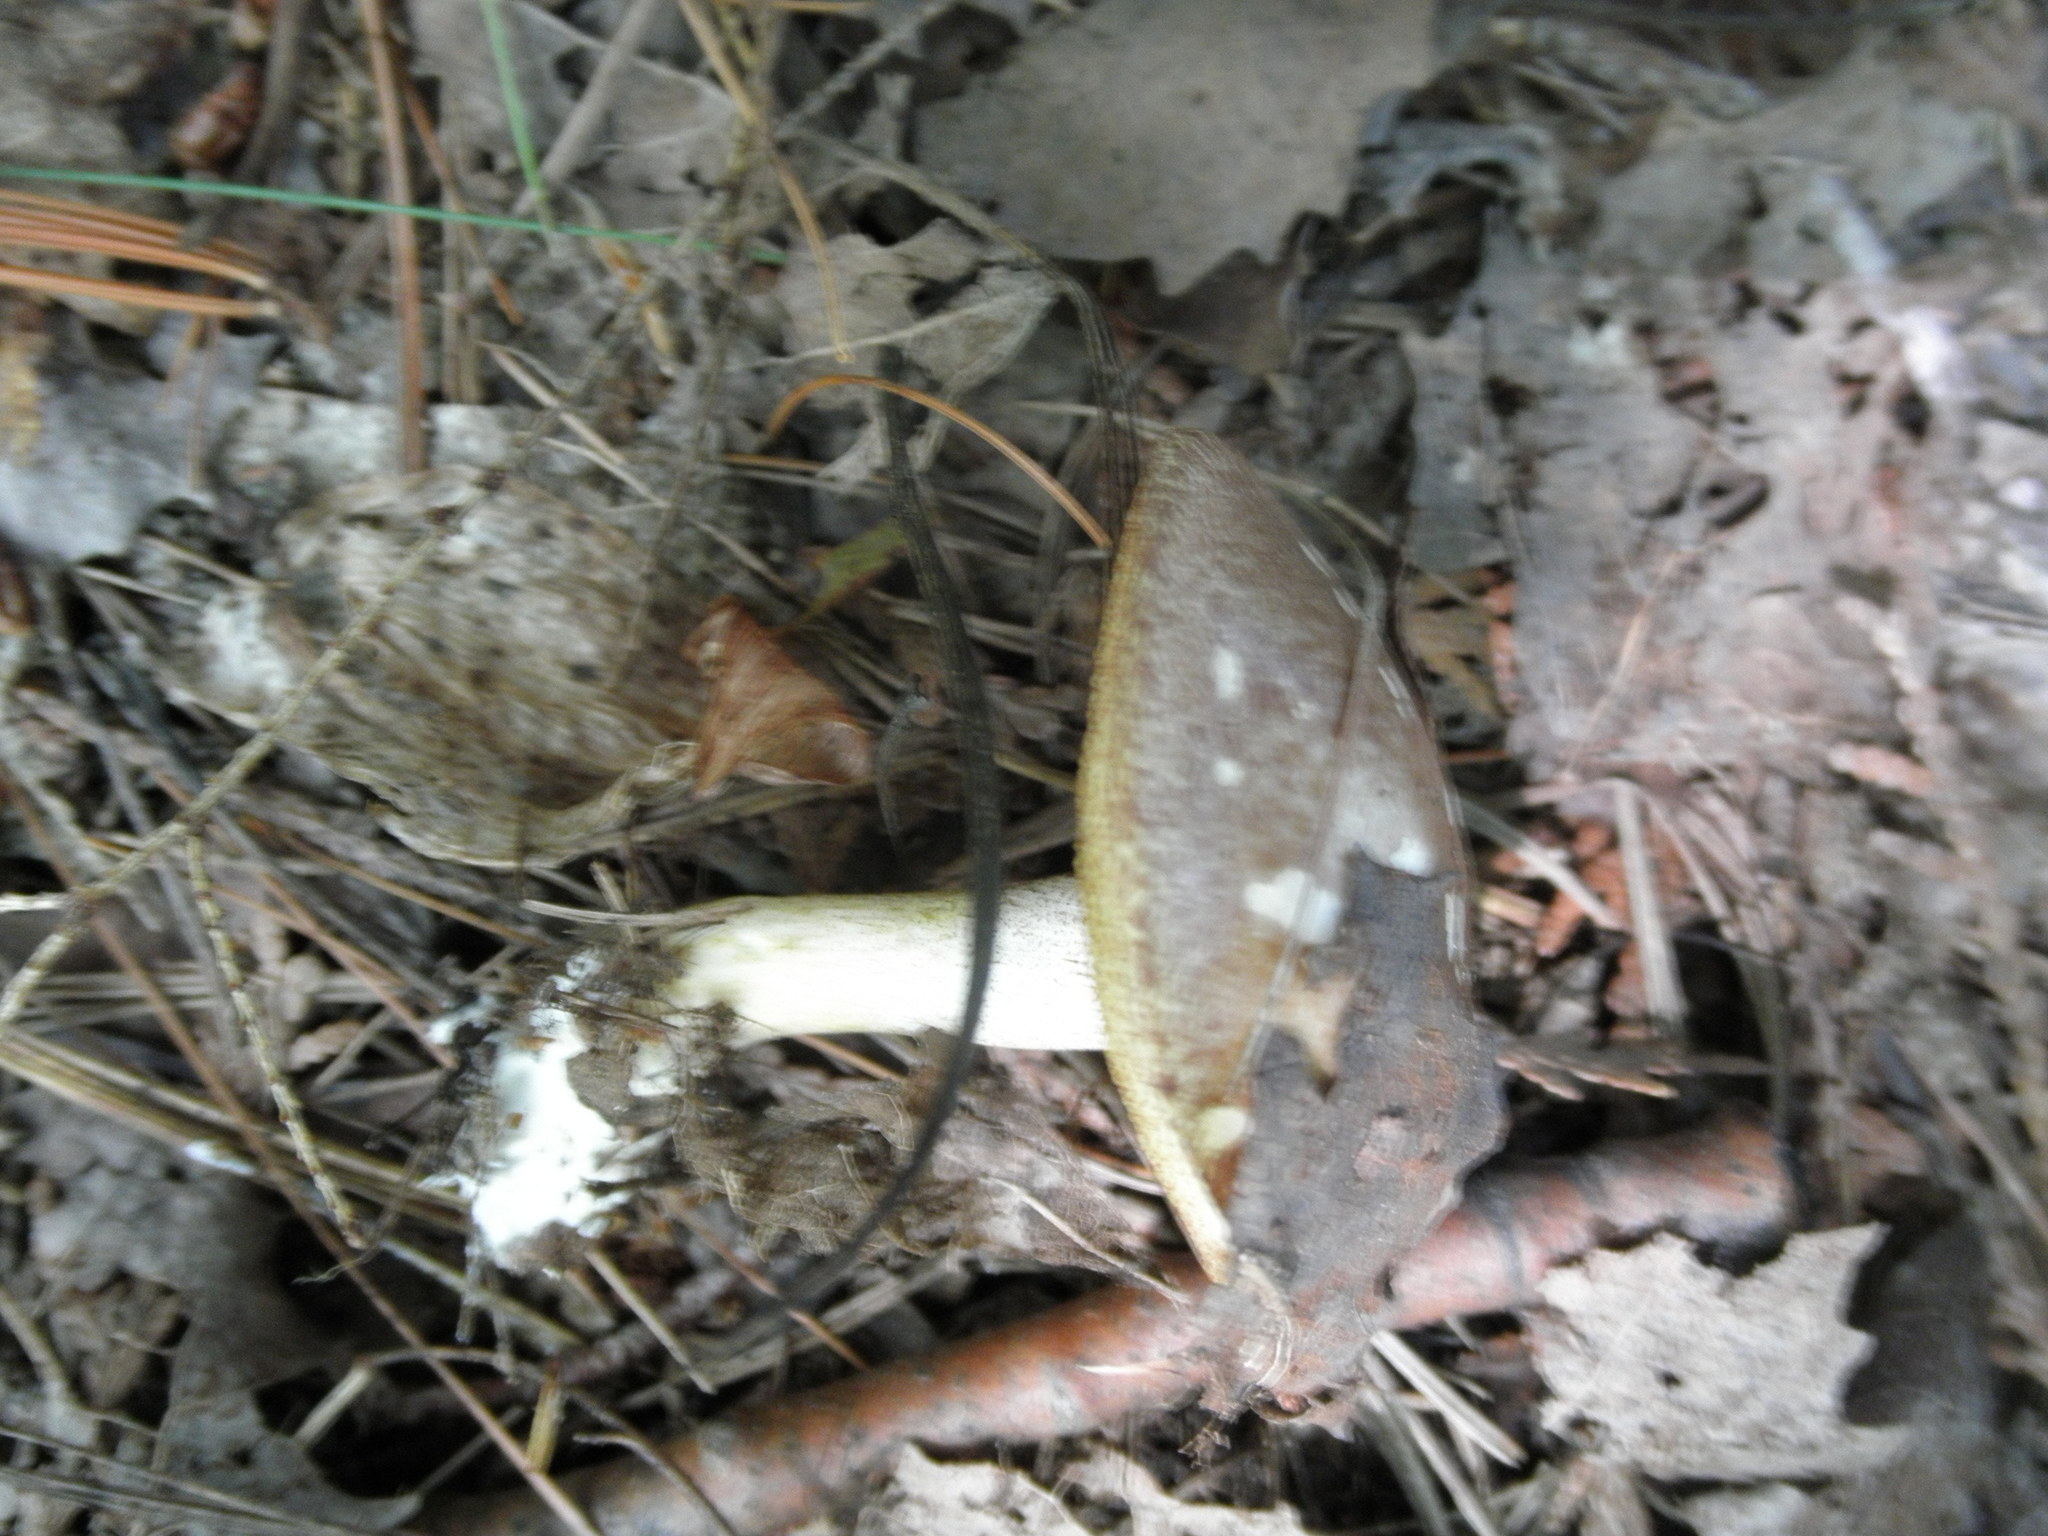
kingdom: Fungi
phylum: Basidiomycota
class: Agaricomycetes
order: Boletales
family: Suillaceae
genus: Fuscoboletinus
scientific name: Fuscoboletinus weaverae
